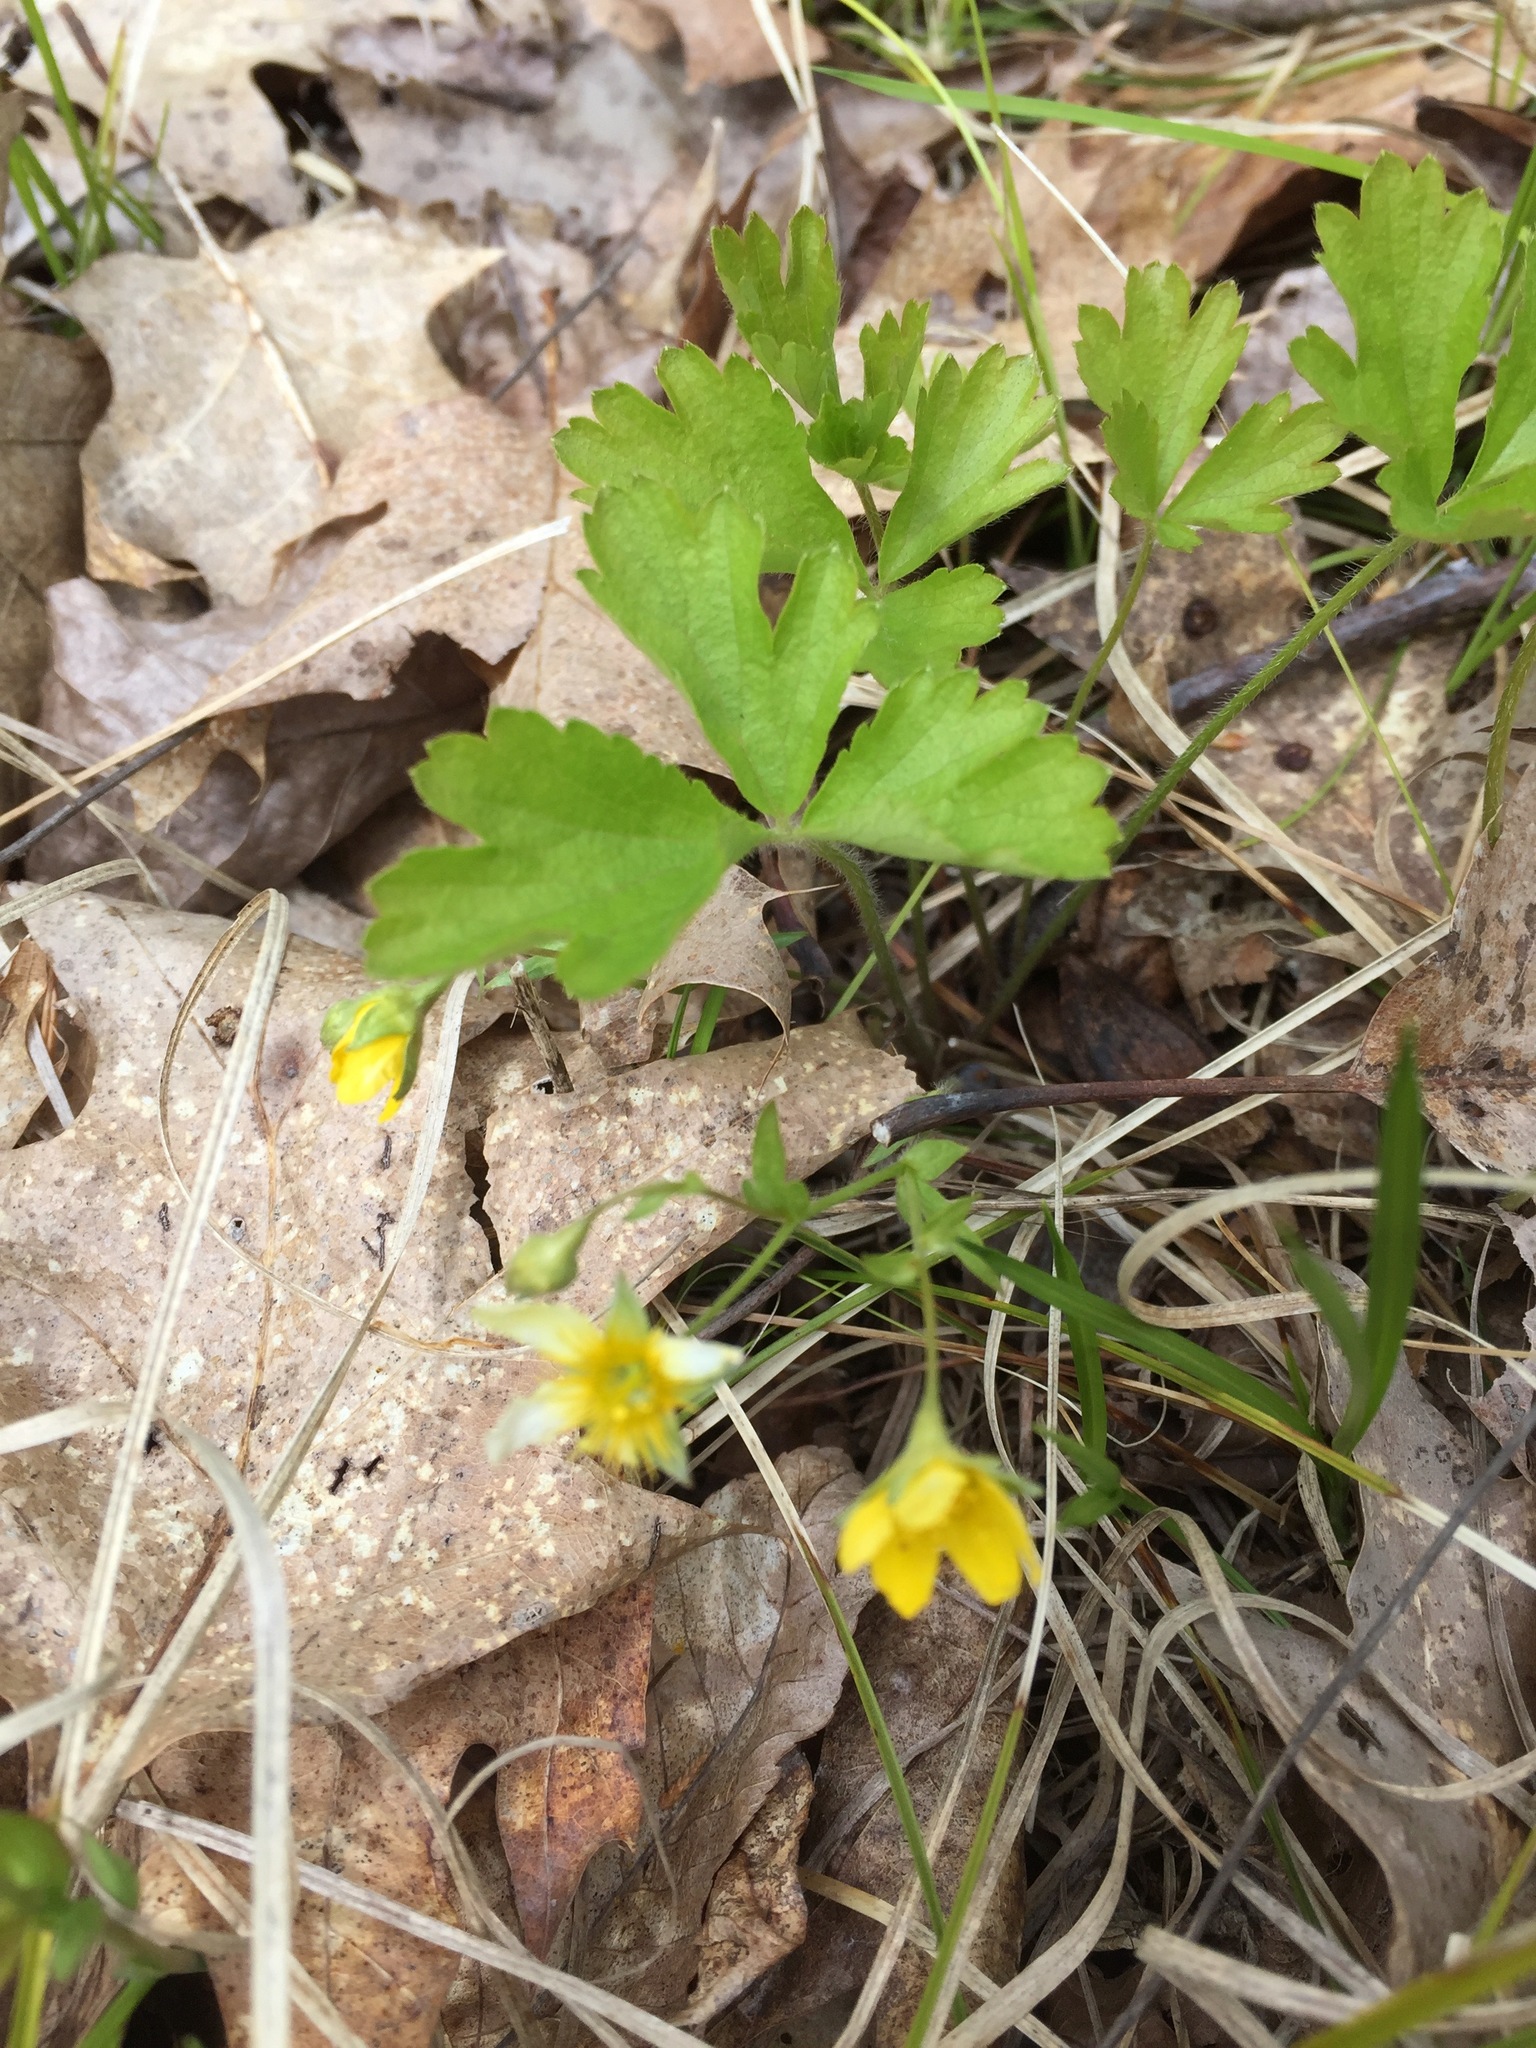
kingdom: Plantae
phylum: Tracheophyta
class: Magnoliopsida
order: Rosales
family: Rosaceae
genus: Geum
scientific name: Geum fragarioides
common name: Appalachian barren strawberry
